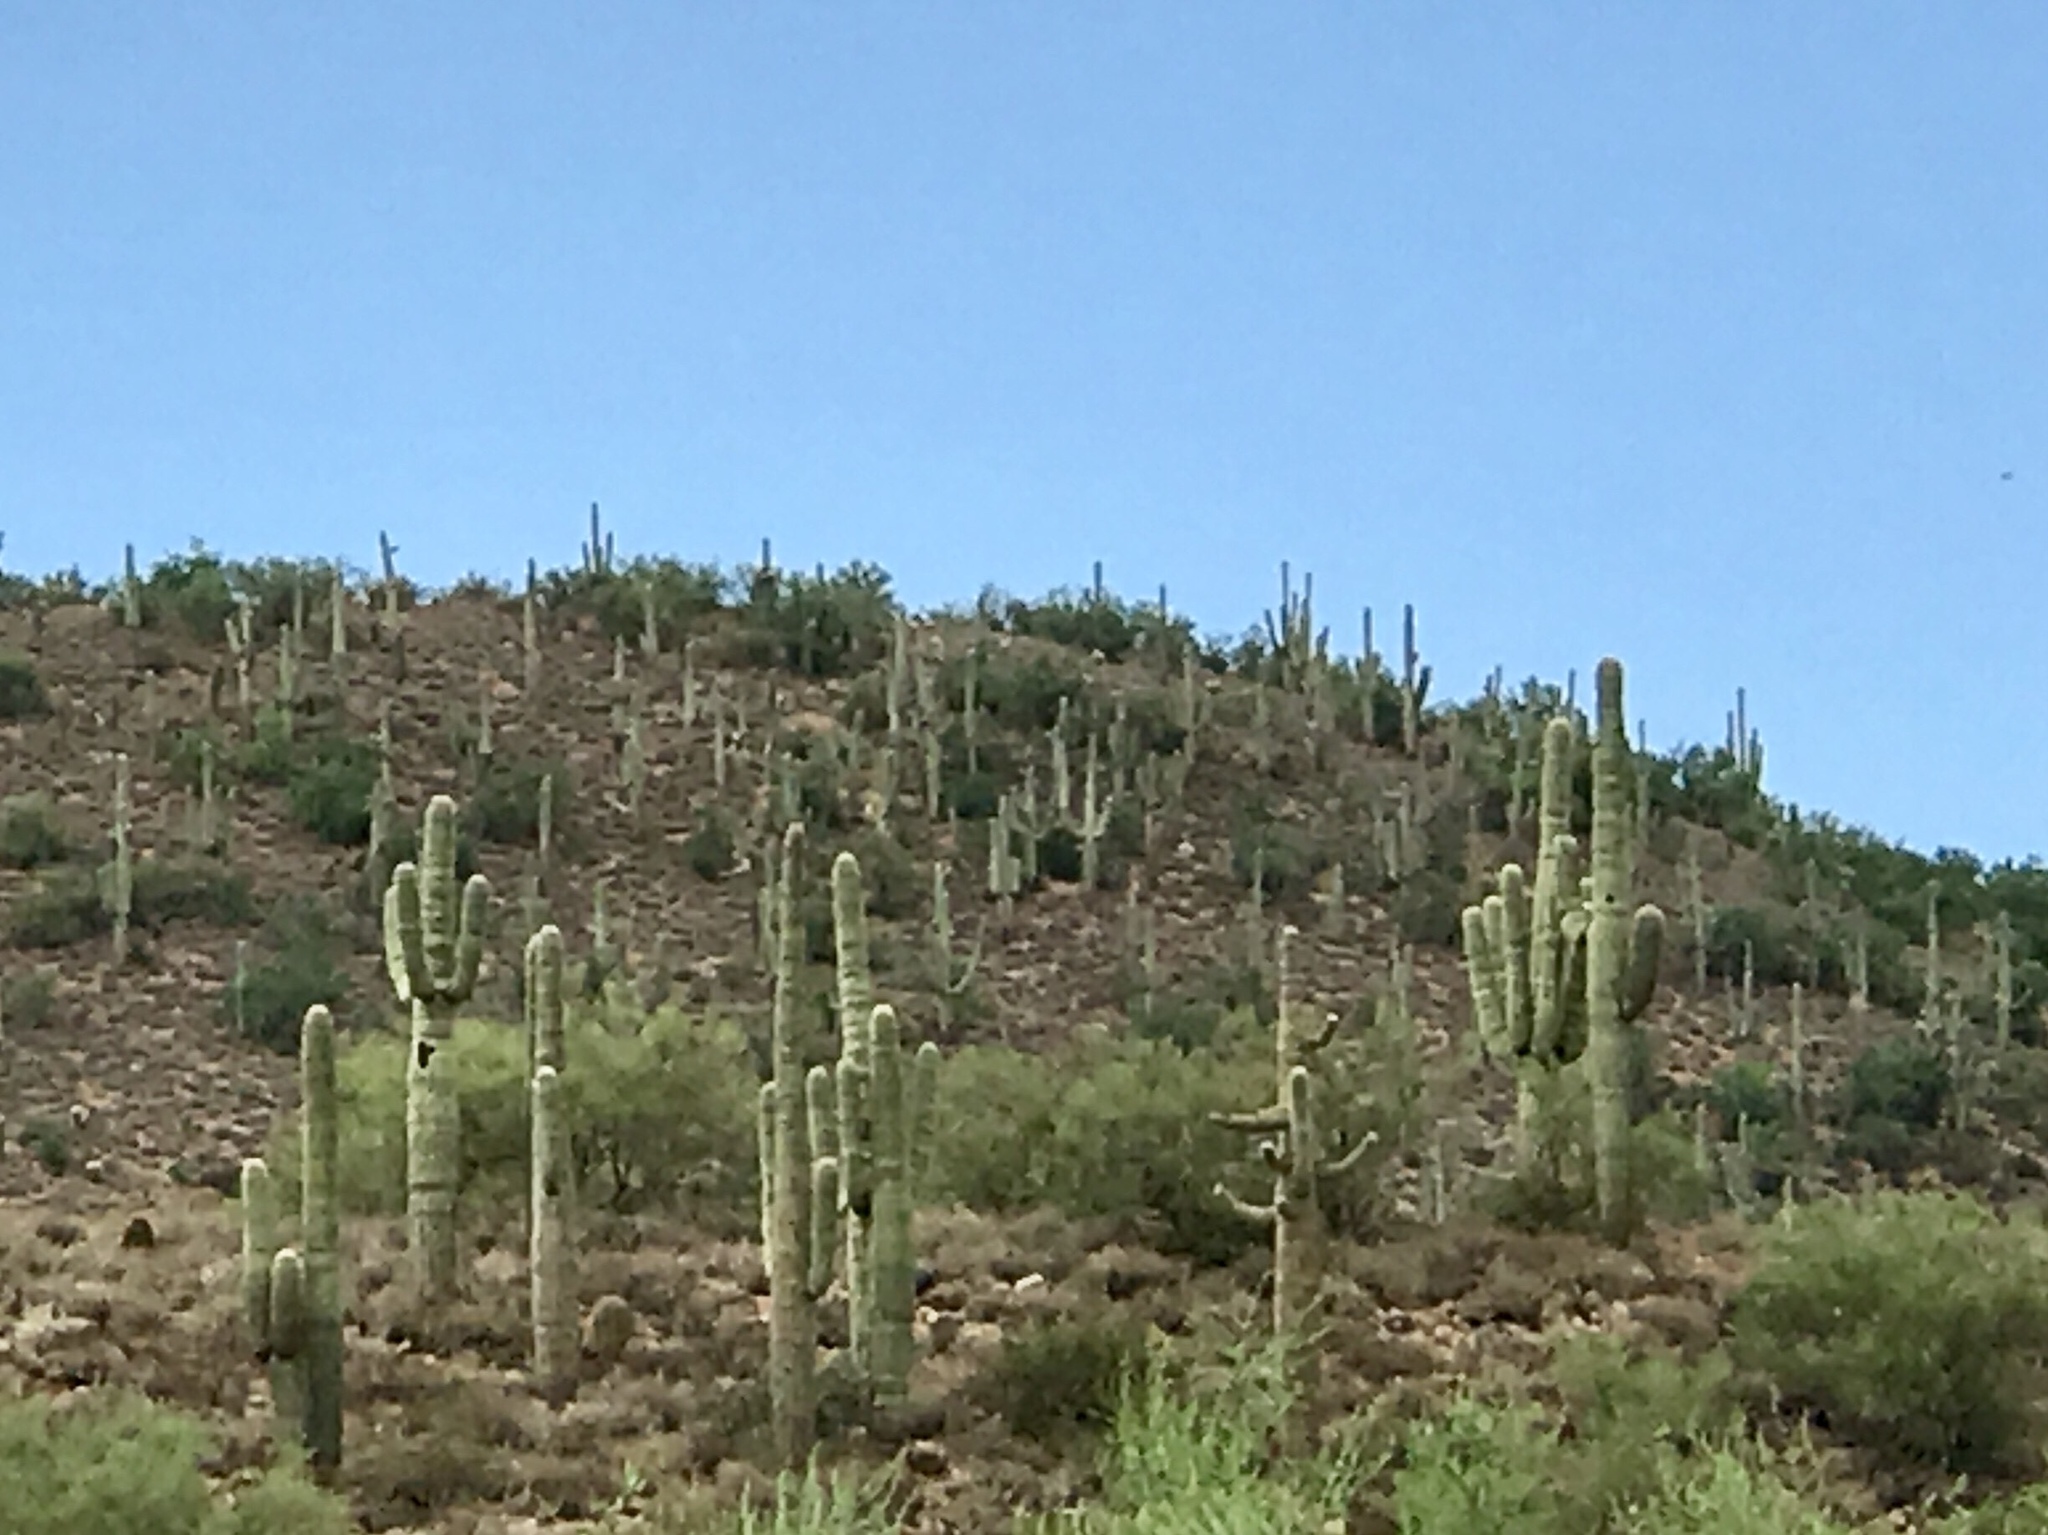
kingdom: Plantae
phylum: Tracheophyta
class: Magnoliopsida
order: Caryophyllales
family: Cactaceae
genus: Carnegiea
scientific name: Carnegiea gigantea
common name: Saguaro
